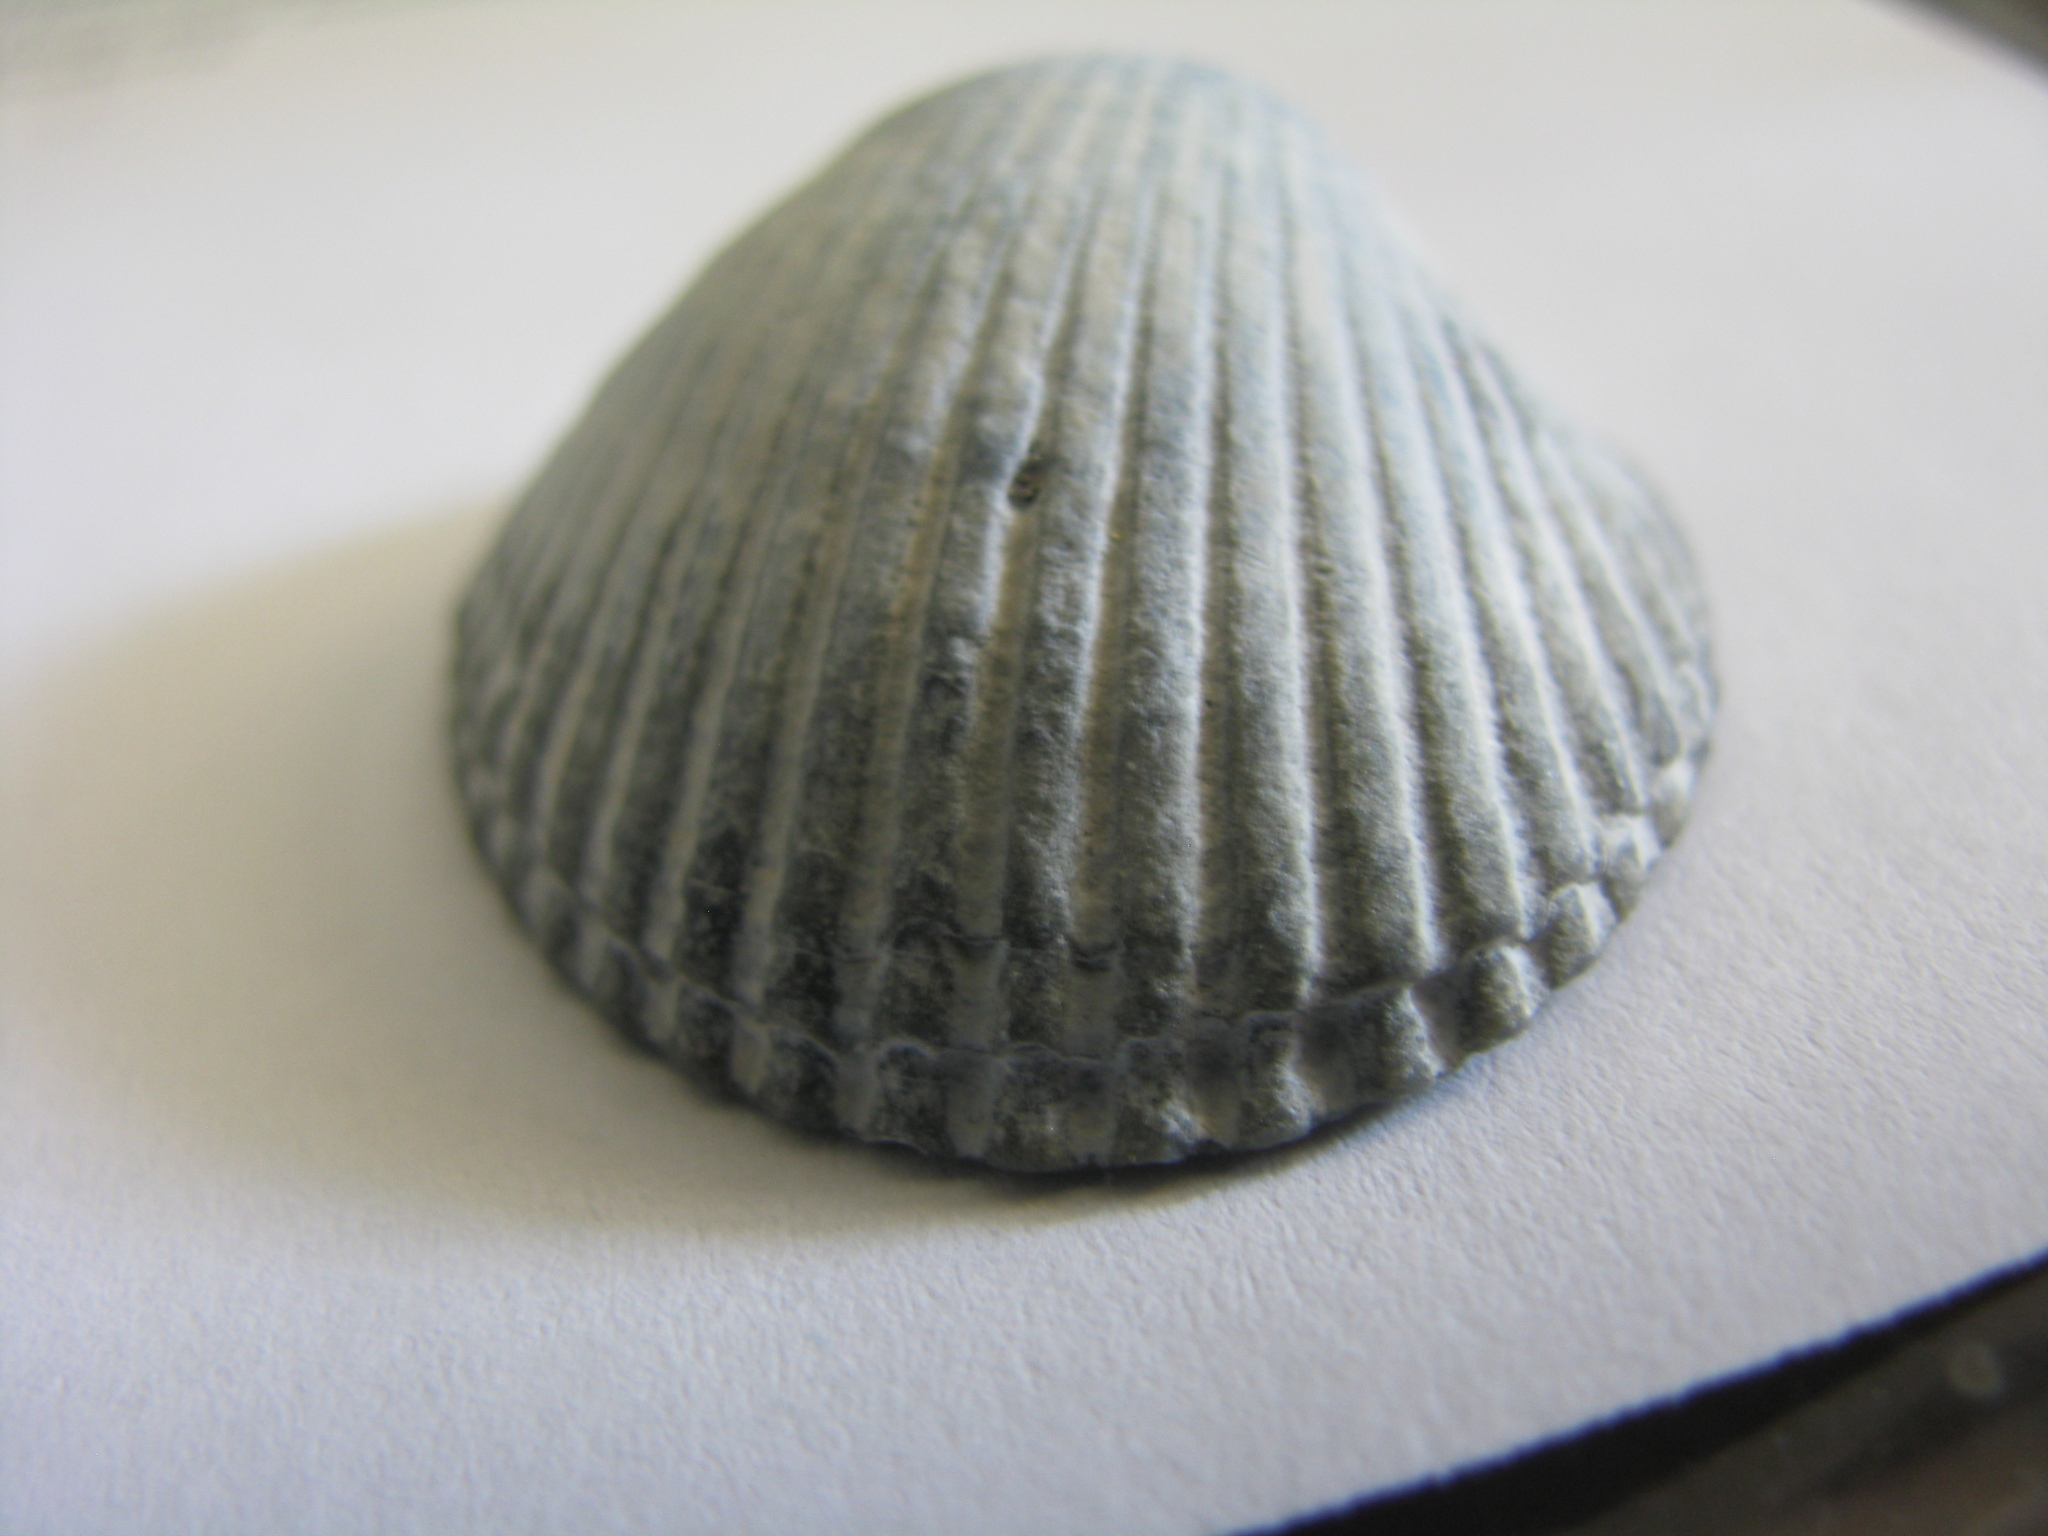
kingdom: Animalia
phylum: Mollusca
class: Bivalvia
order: Arcida
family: Arcidae
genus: Lunarca
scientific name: Lunarca ovalis
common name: Blood ark
